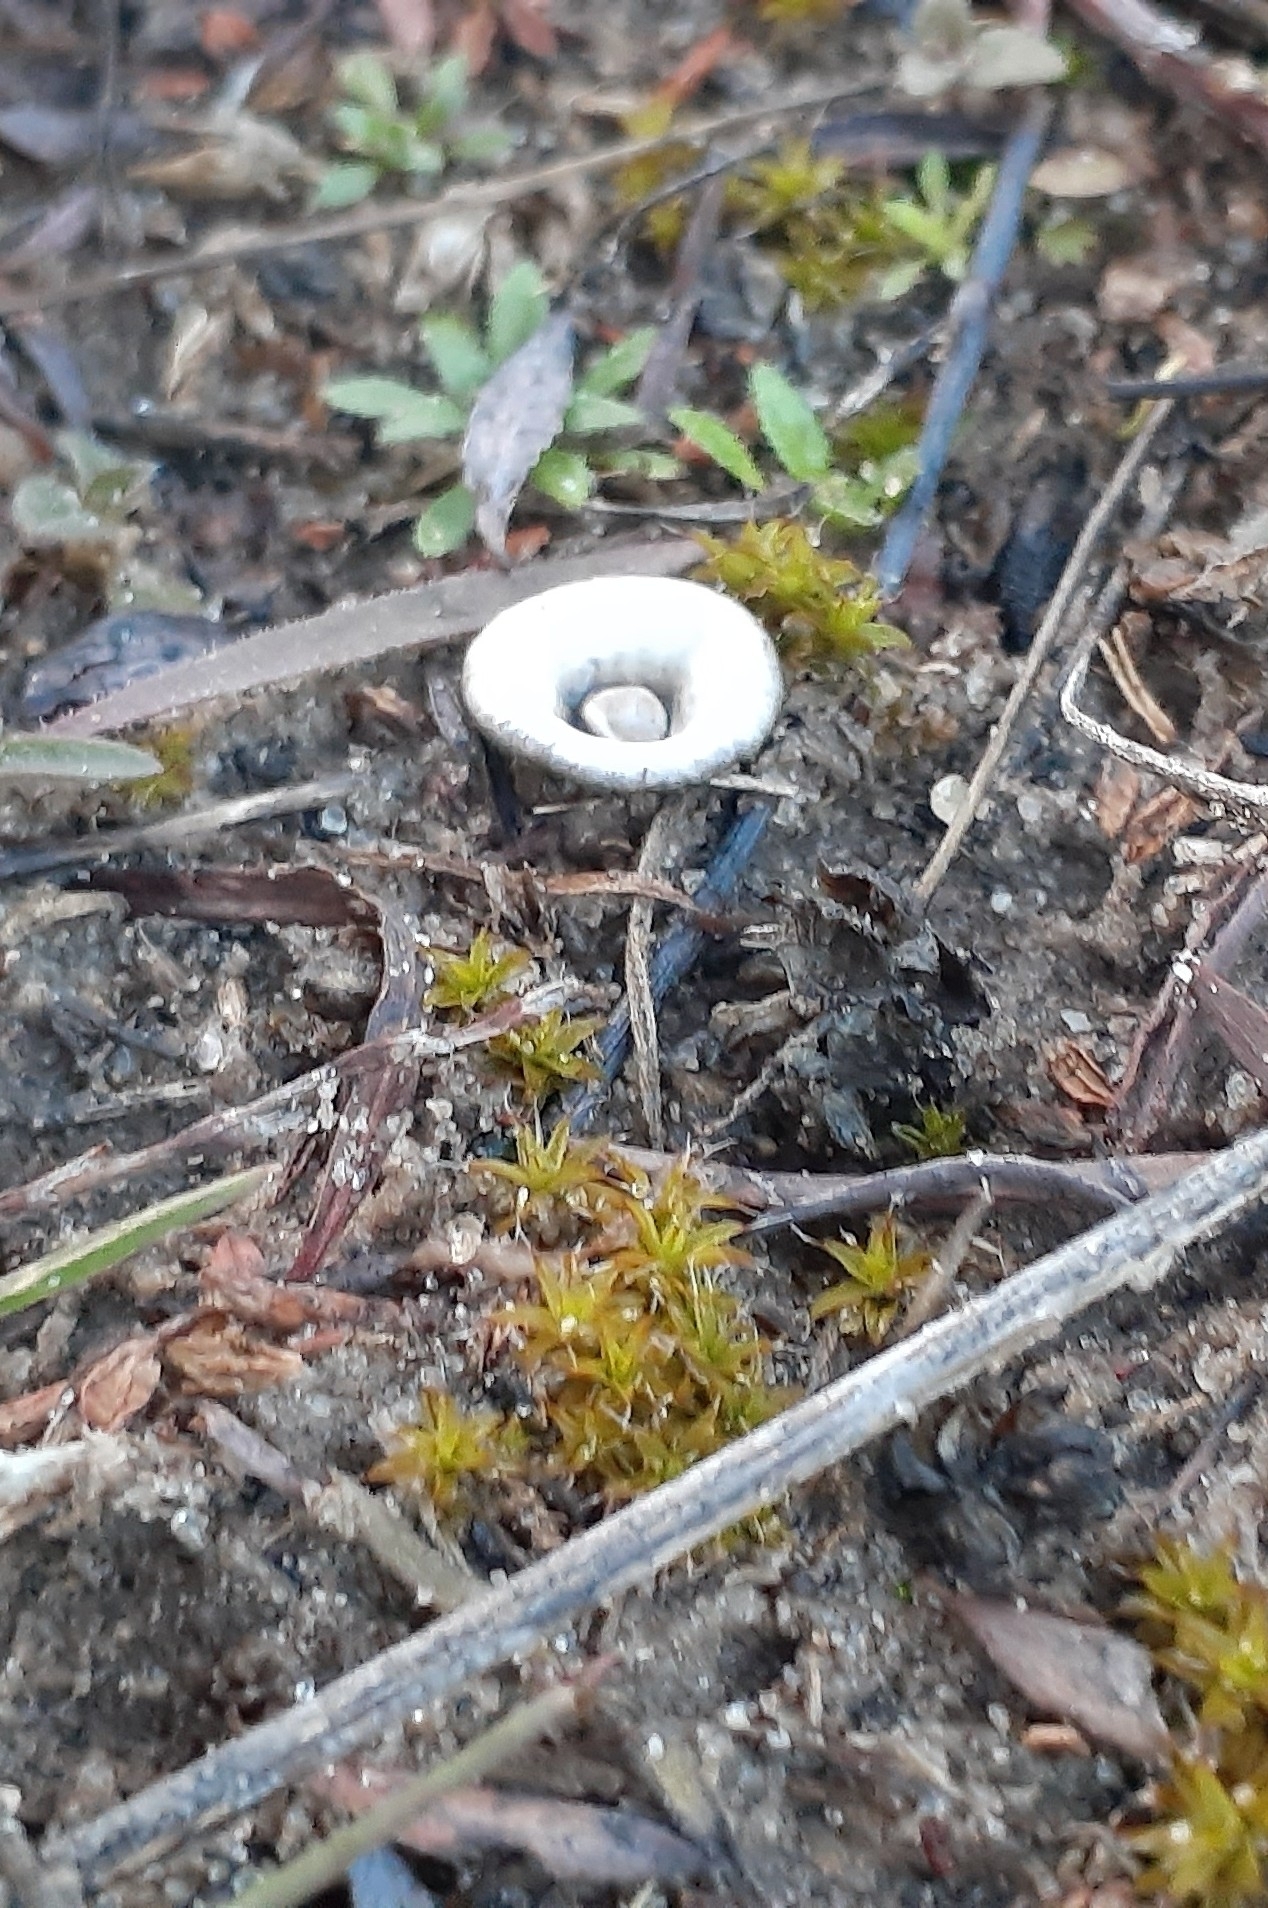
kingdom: Fungi
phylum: Basidiomycota
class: Agaricomycetes
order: Agaricales
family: Agaricaceae
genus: Cyathus
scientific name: Cyathus olla
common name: Field bird's nest
